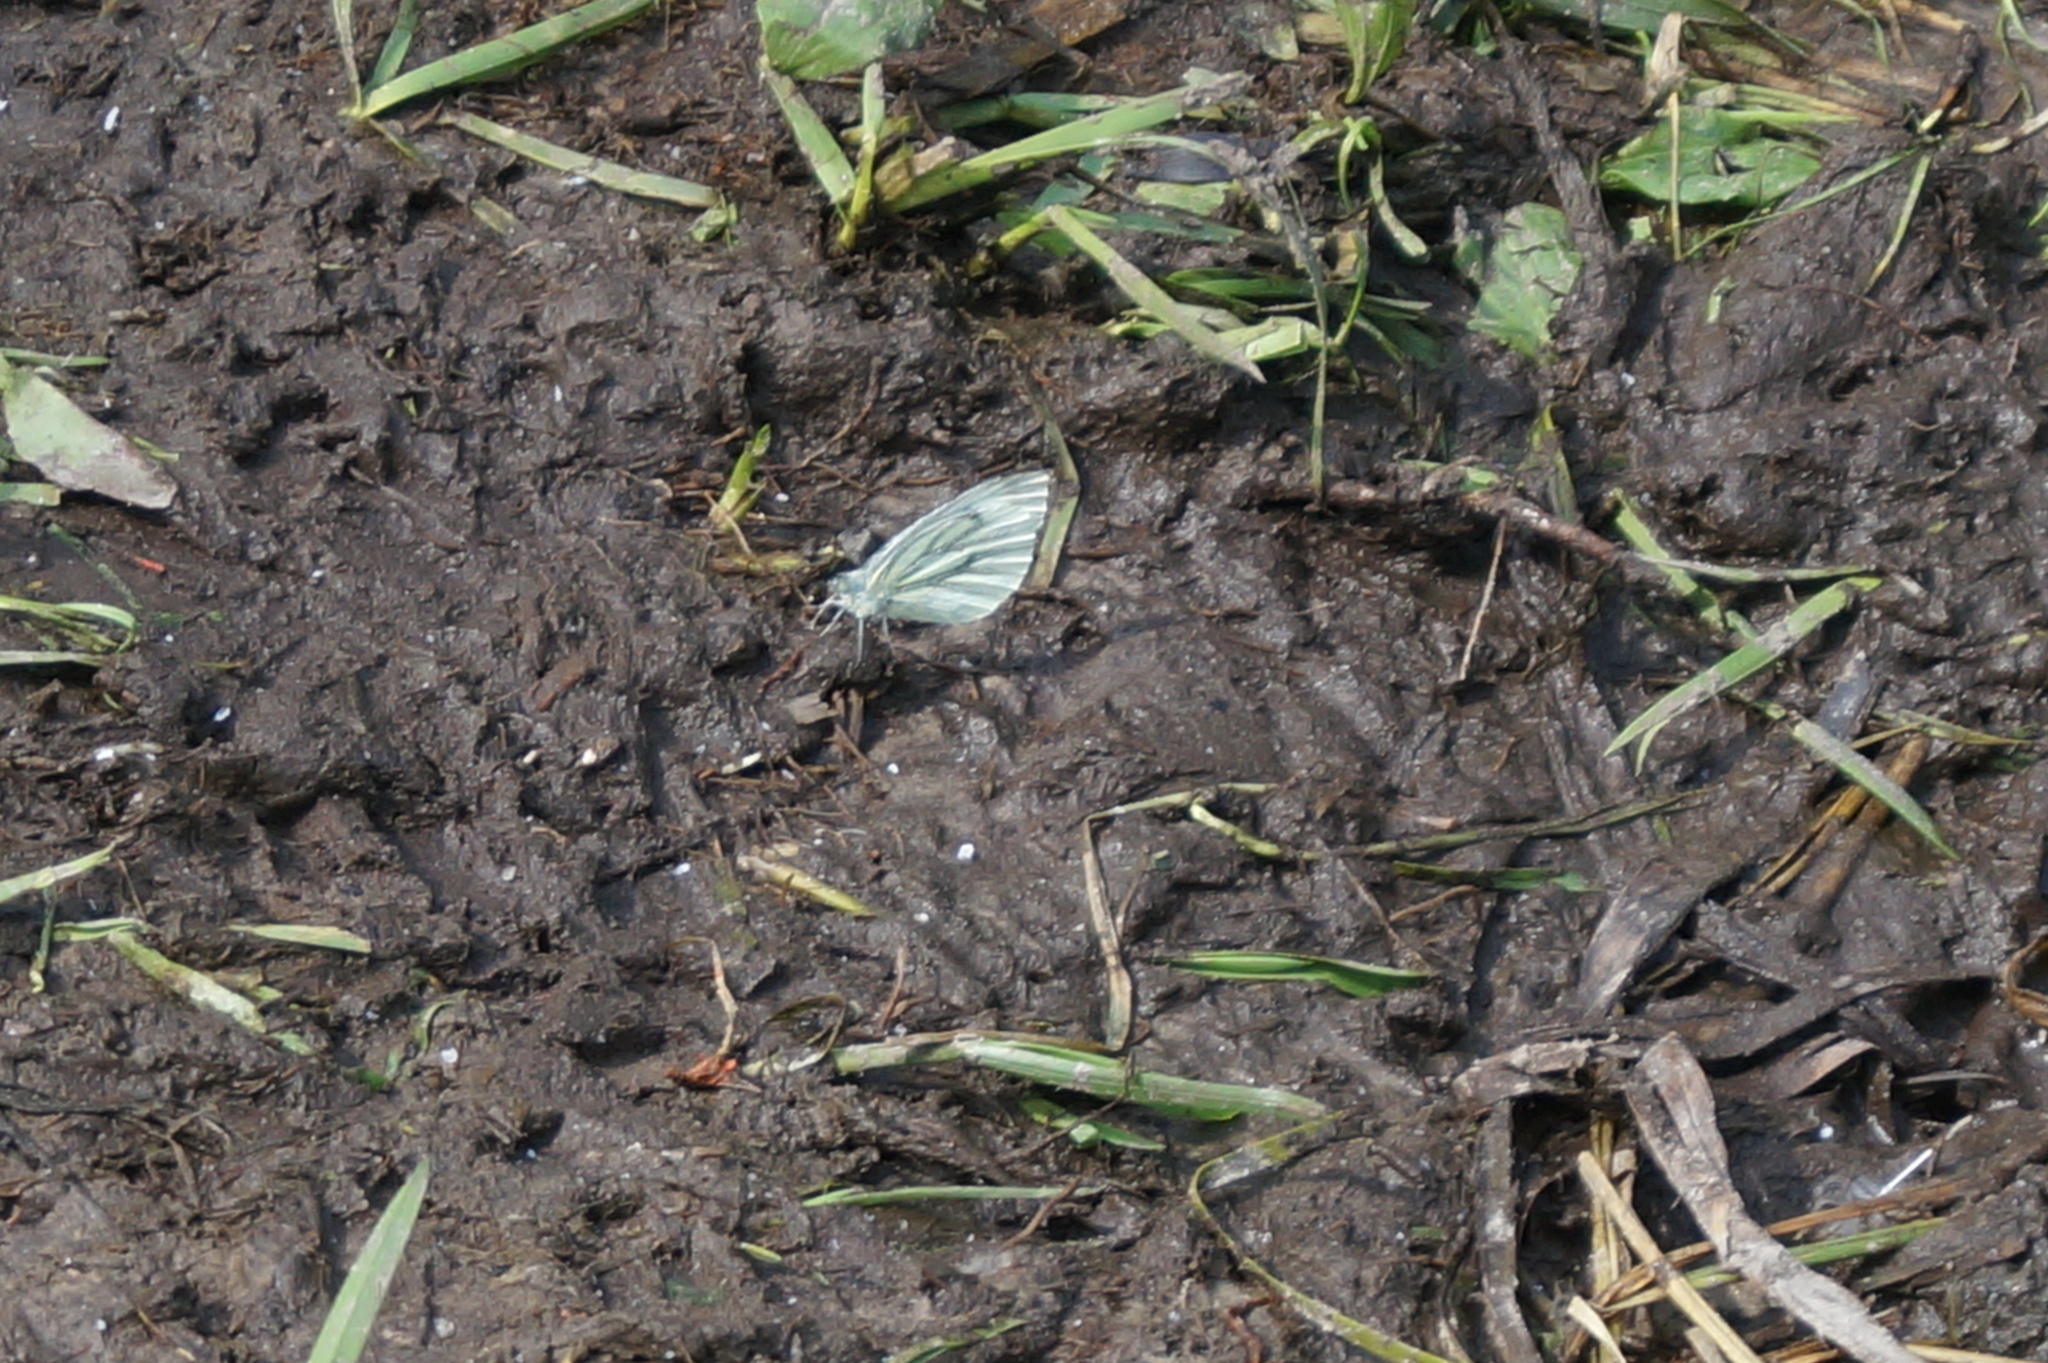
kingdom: Animalia
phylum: Arthropoda
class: Insecta
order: Lepidoptera
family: Pieridae
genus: Pieris
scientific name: Pieris napi
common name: Green-veined white
